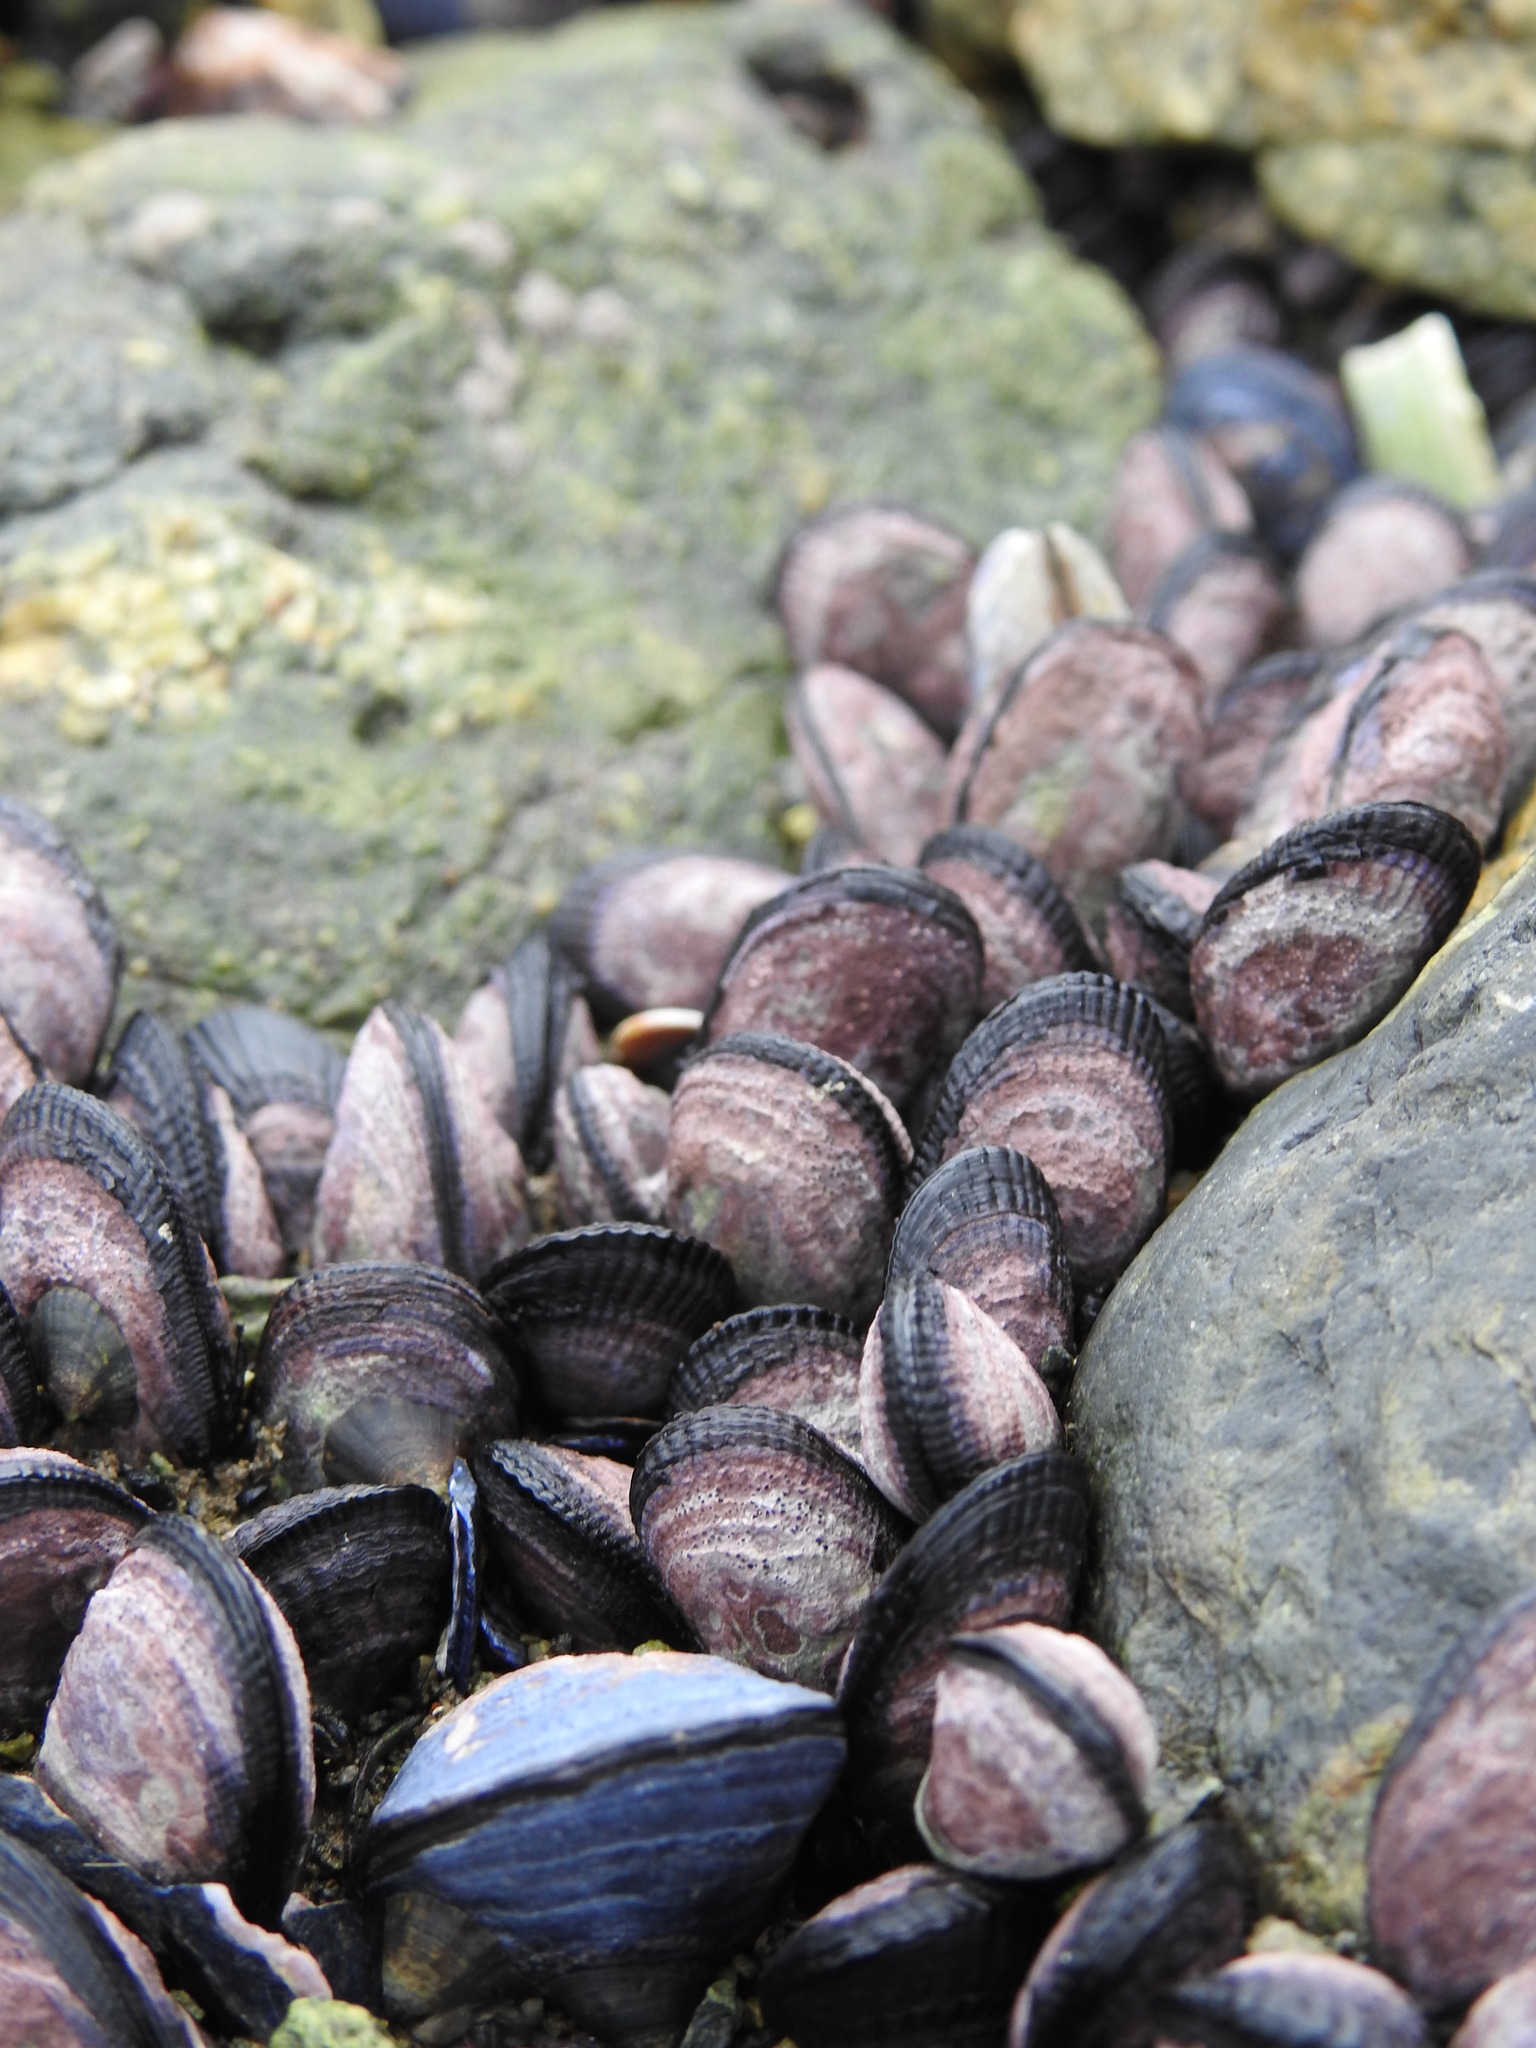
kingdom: Animalia
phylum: Mollusca
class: Bivalvia
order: Mytilida
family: Mytilidae
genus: Perumytilus
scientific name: Perumytilus purpuratus
